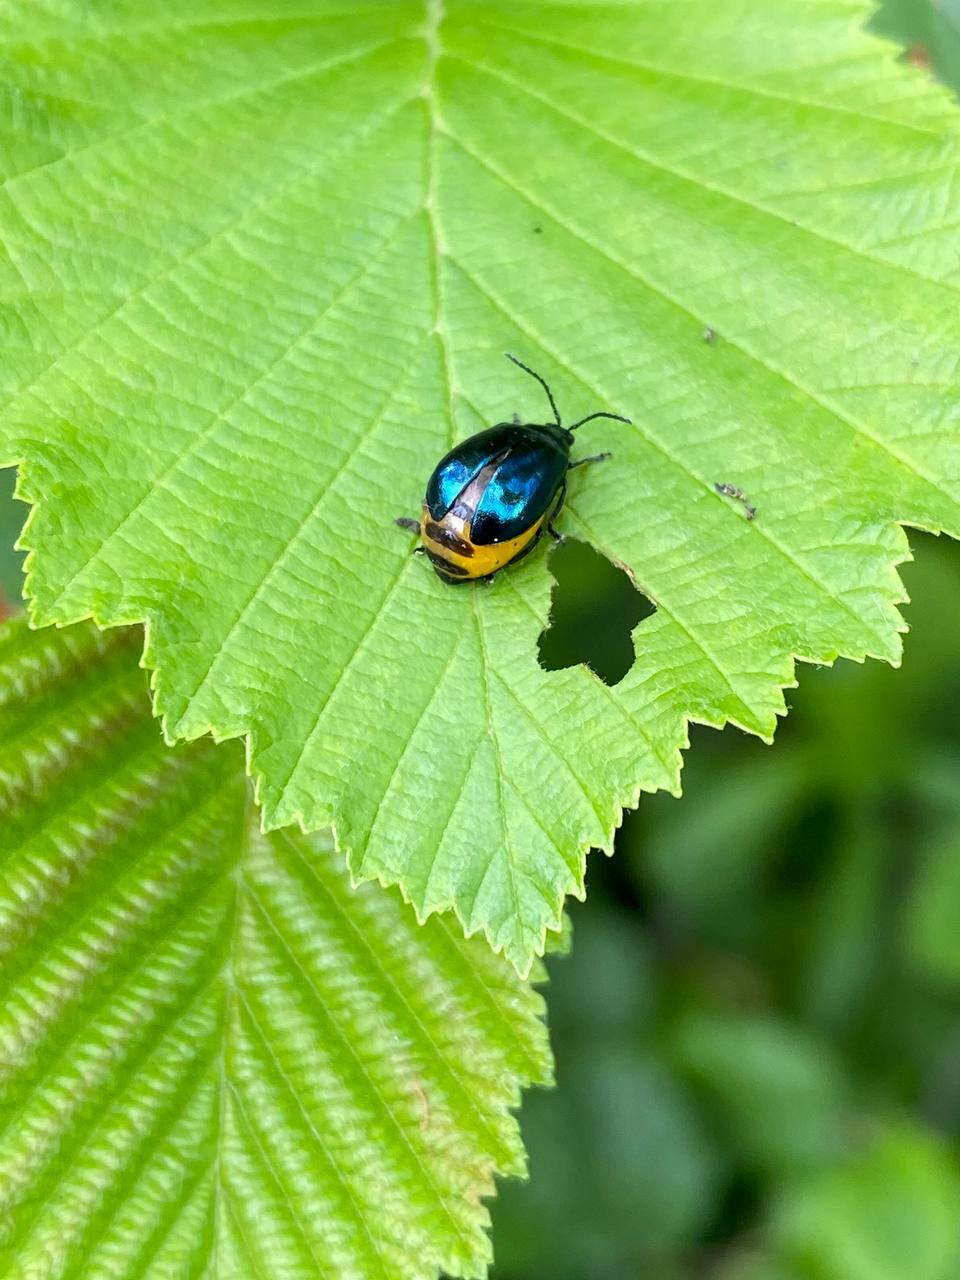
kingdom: Animalia
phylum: Arthropoda
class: Insecta
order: Coleoptera
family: Chrysomelidae
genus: Agelastica
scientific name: Agelastica alni
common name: Alder leaf beetle
